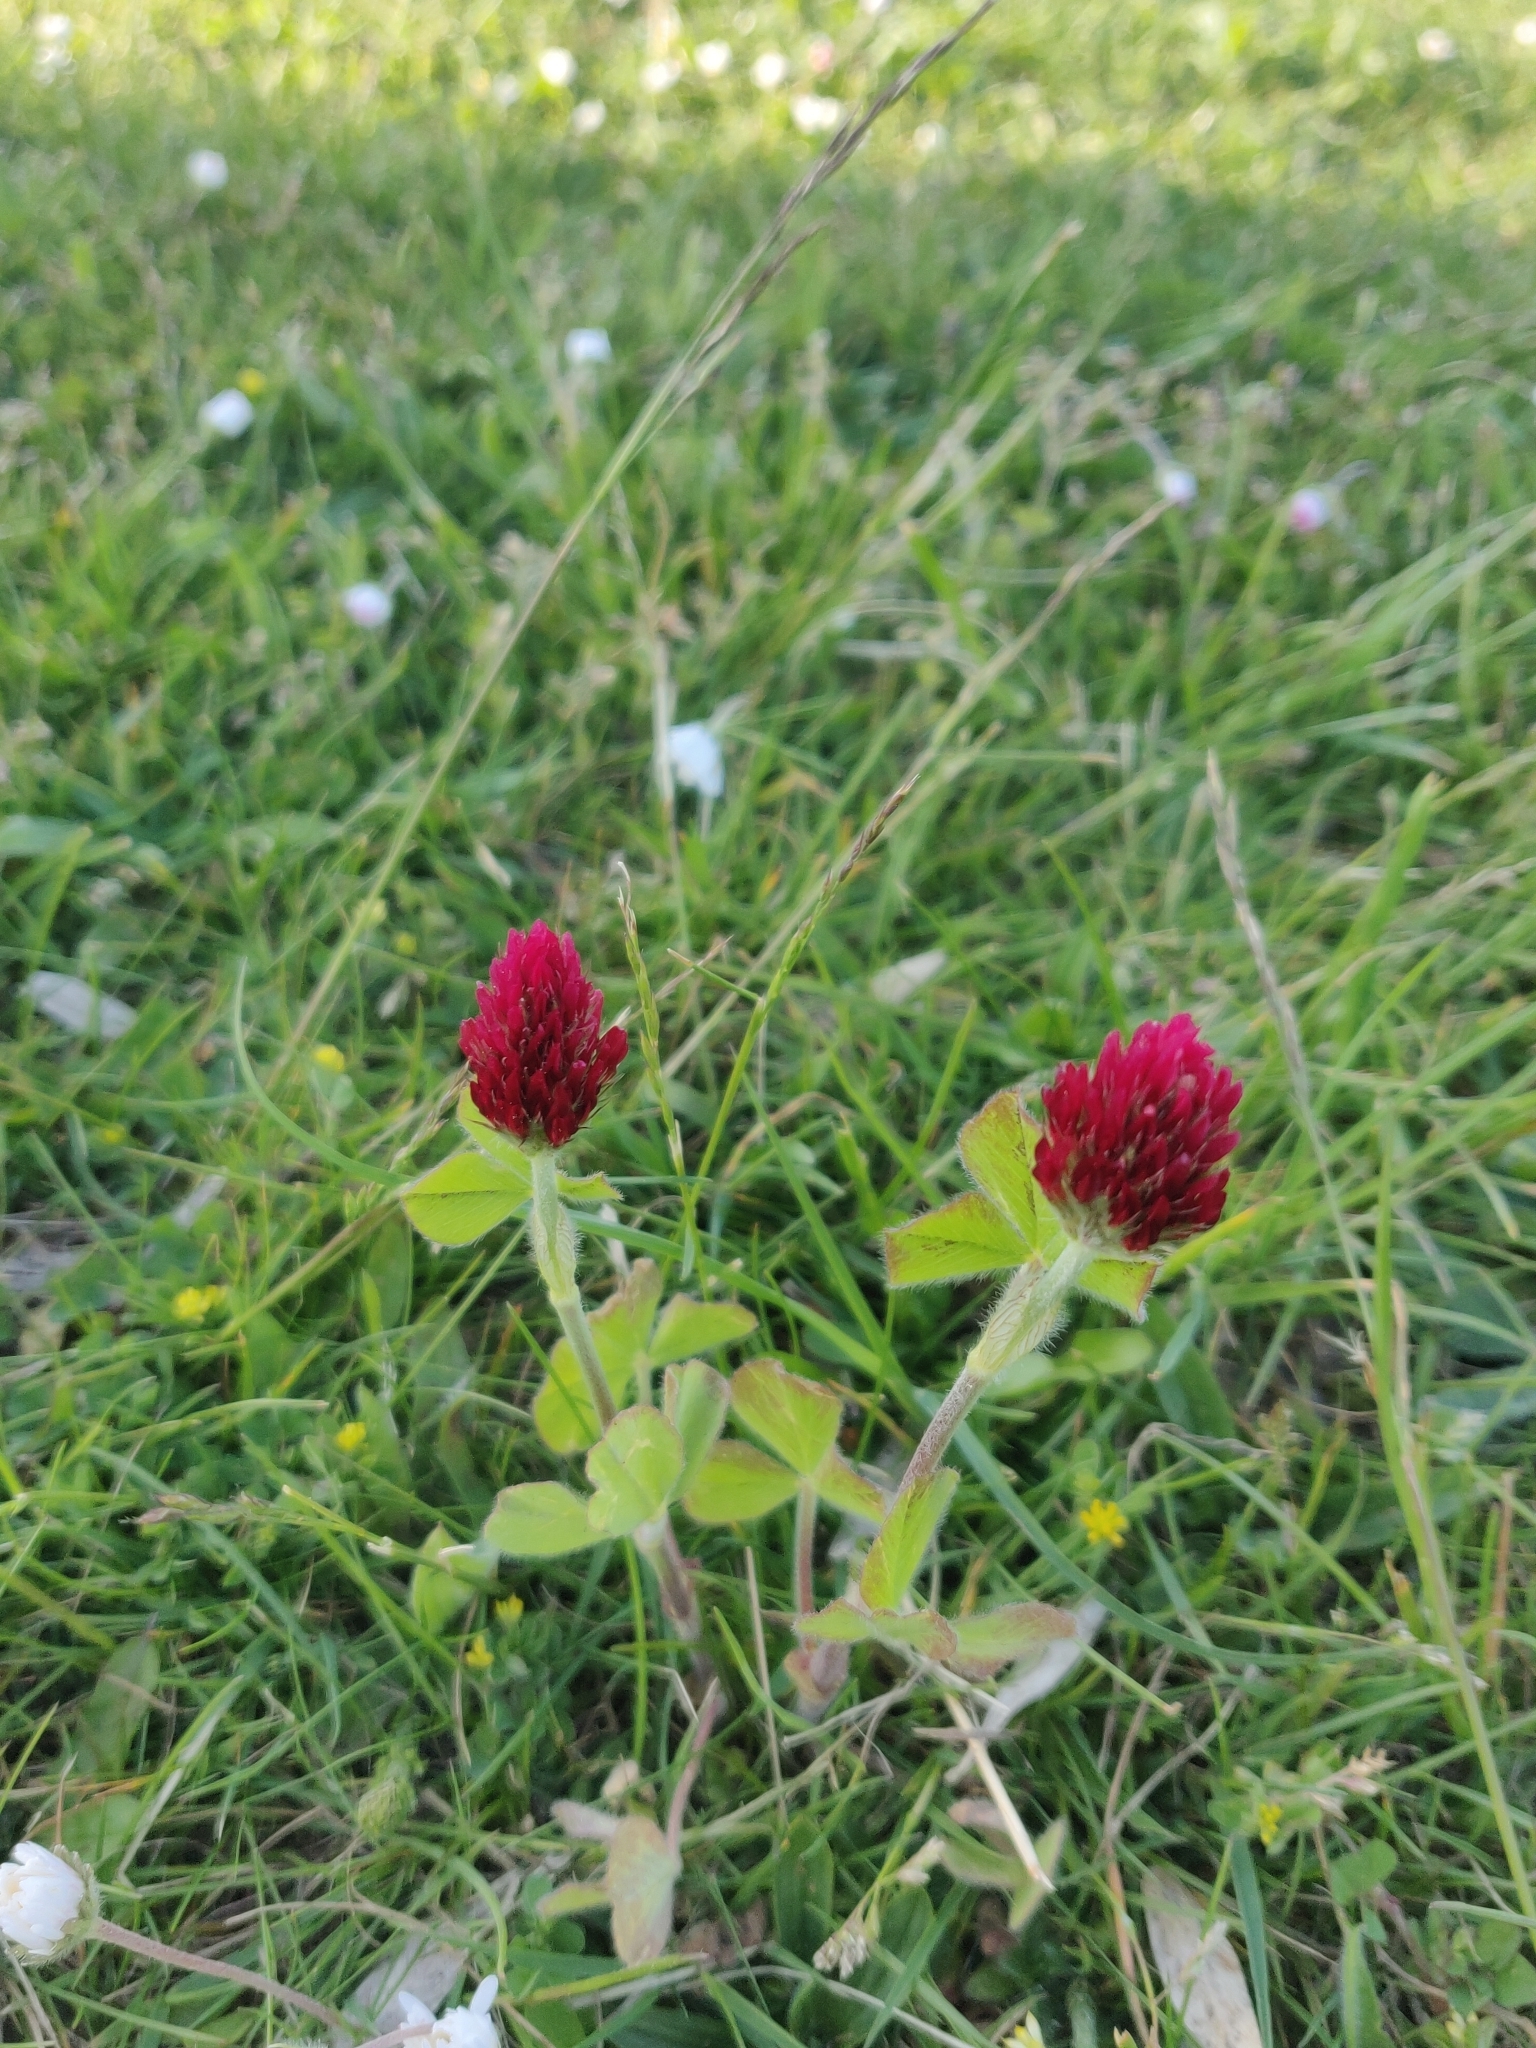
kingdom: Plantae
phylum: Tracheophyta
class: Magnoliopsida
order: Fabales
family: Fabaceae
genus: Trifolium
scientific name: Trifolium incarnatum
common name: Crimson clover
